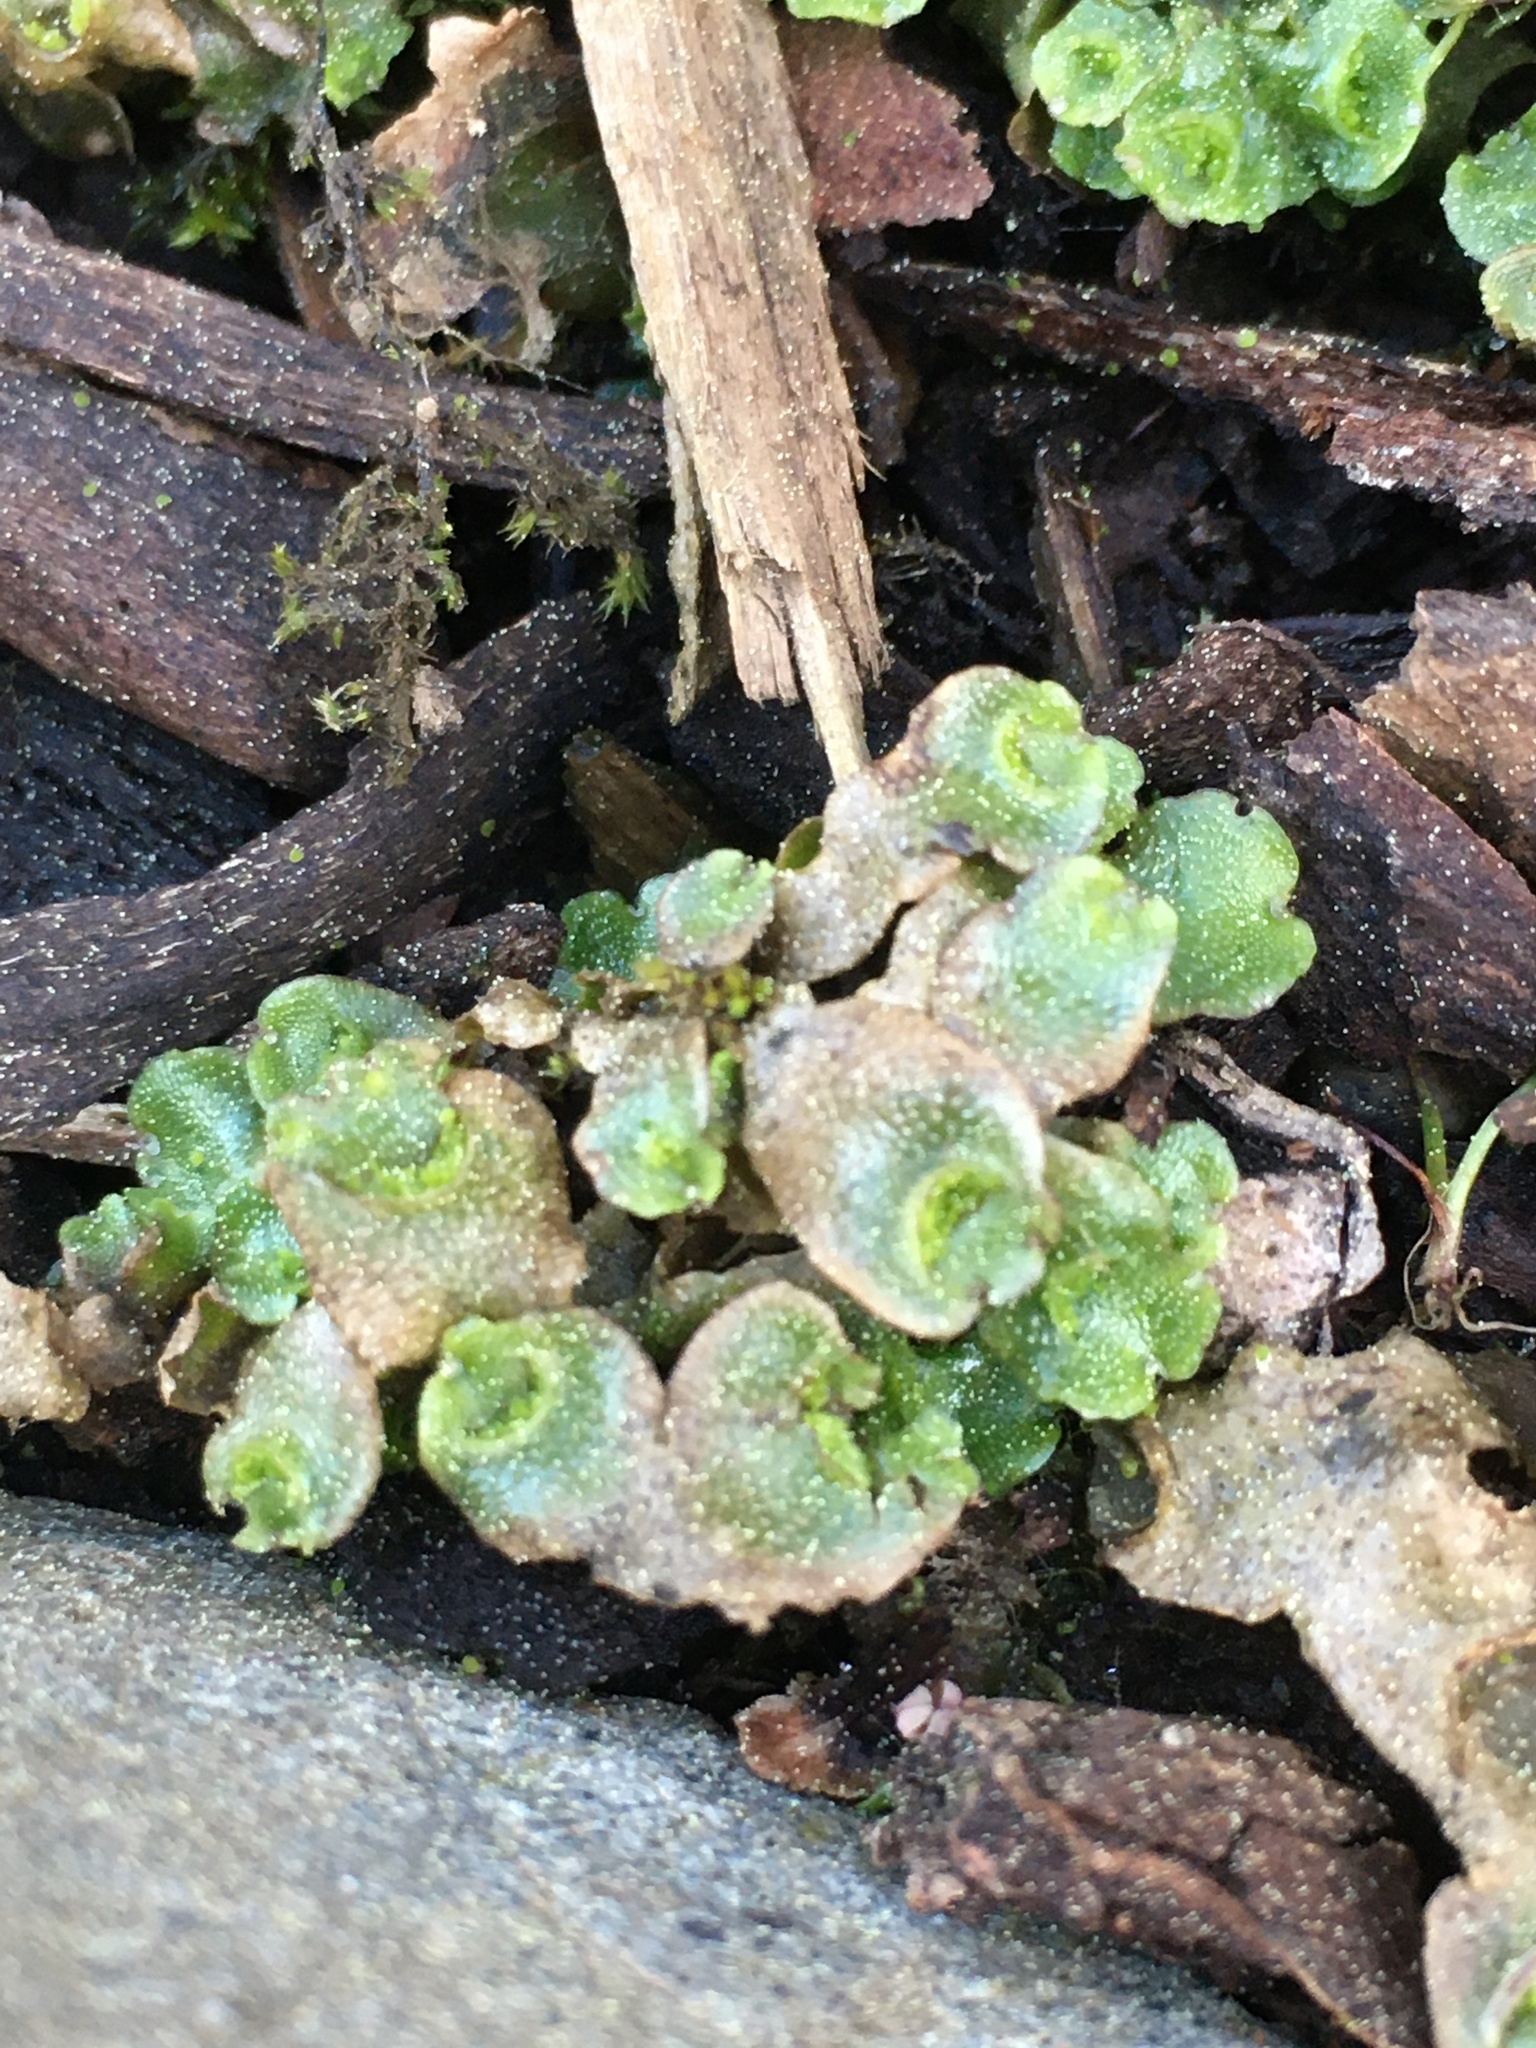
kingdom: Plantae
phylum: Marchantiophyta
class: Marchantiopsida
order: Lunulariales
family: Lunulariaceae
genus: Lunularia
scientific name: Lunularia cruciata
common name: Crescent-cup liverwort
